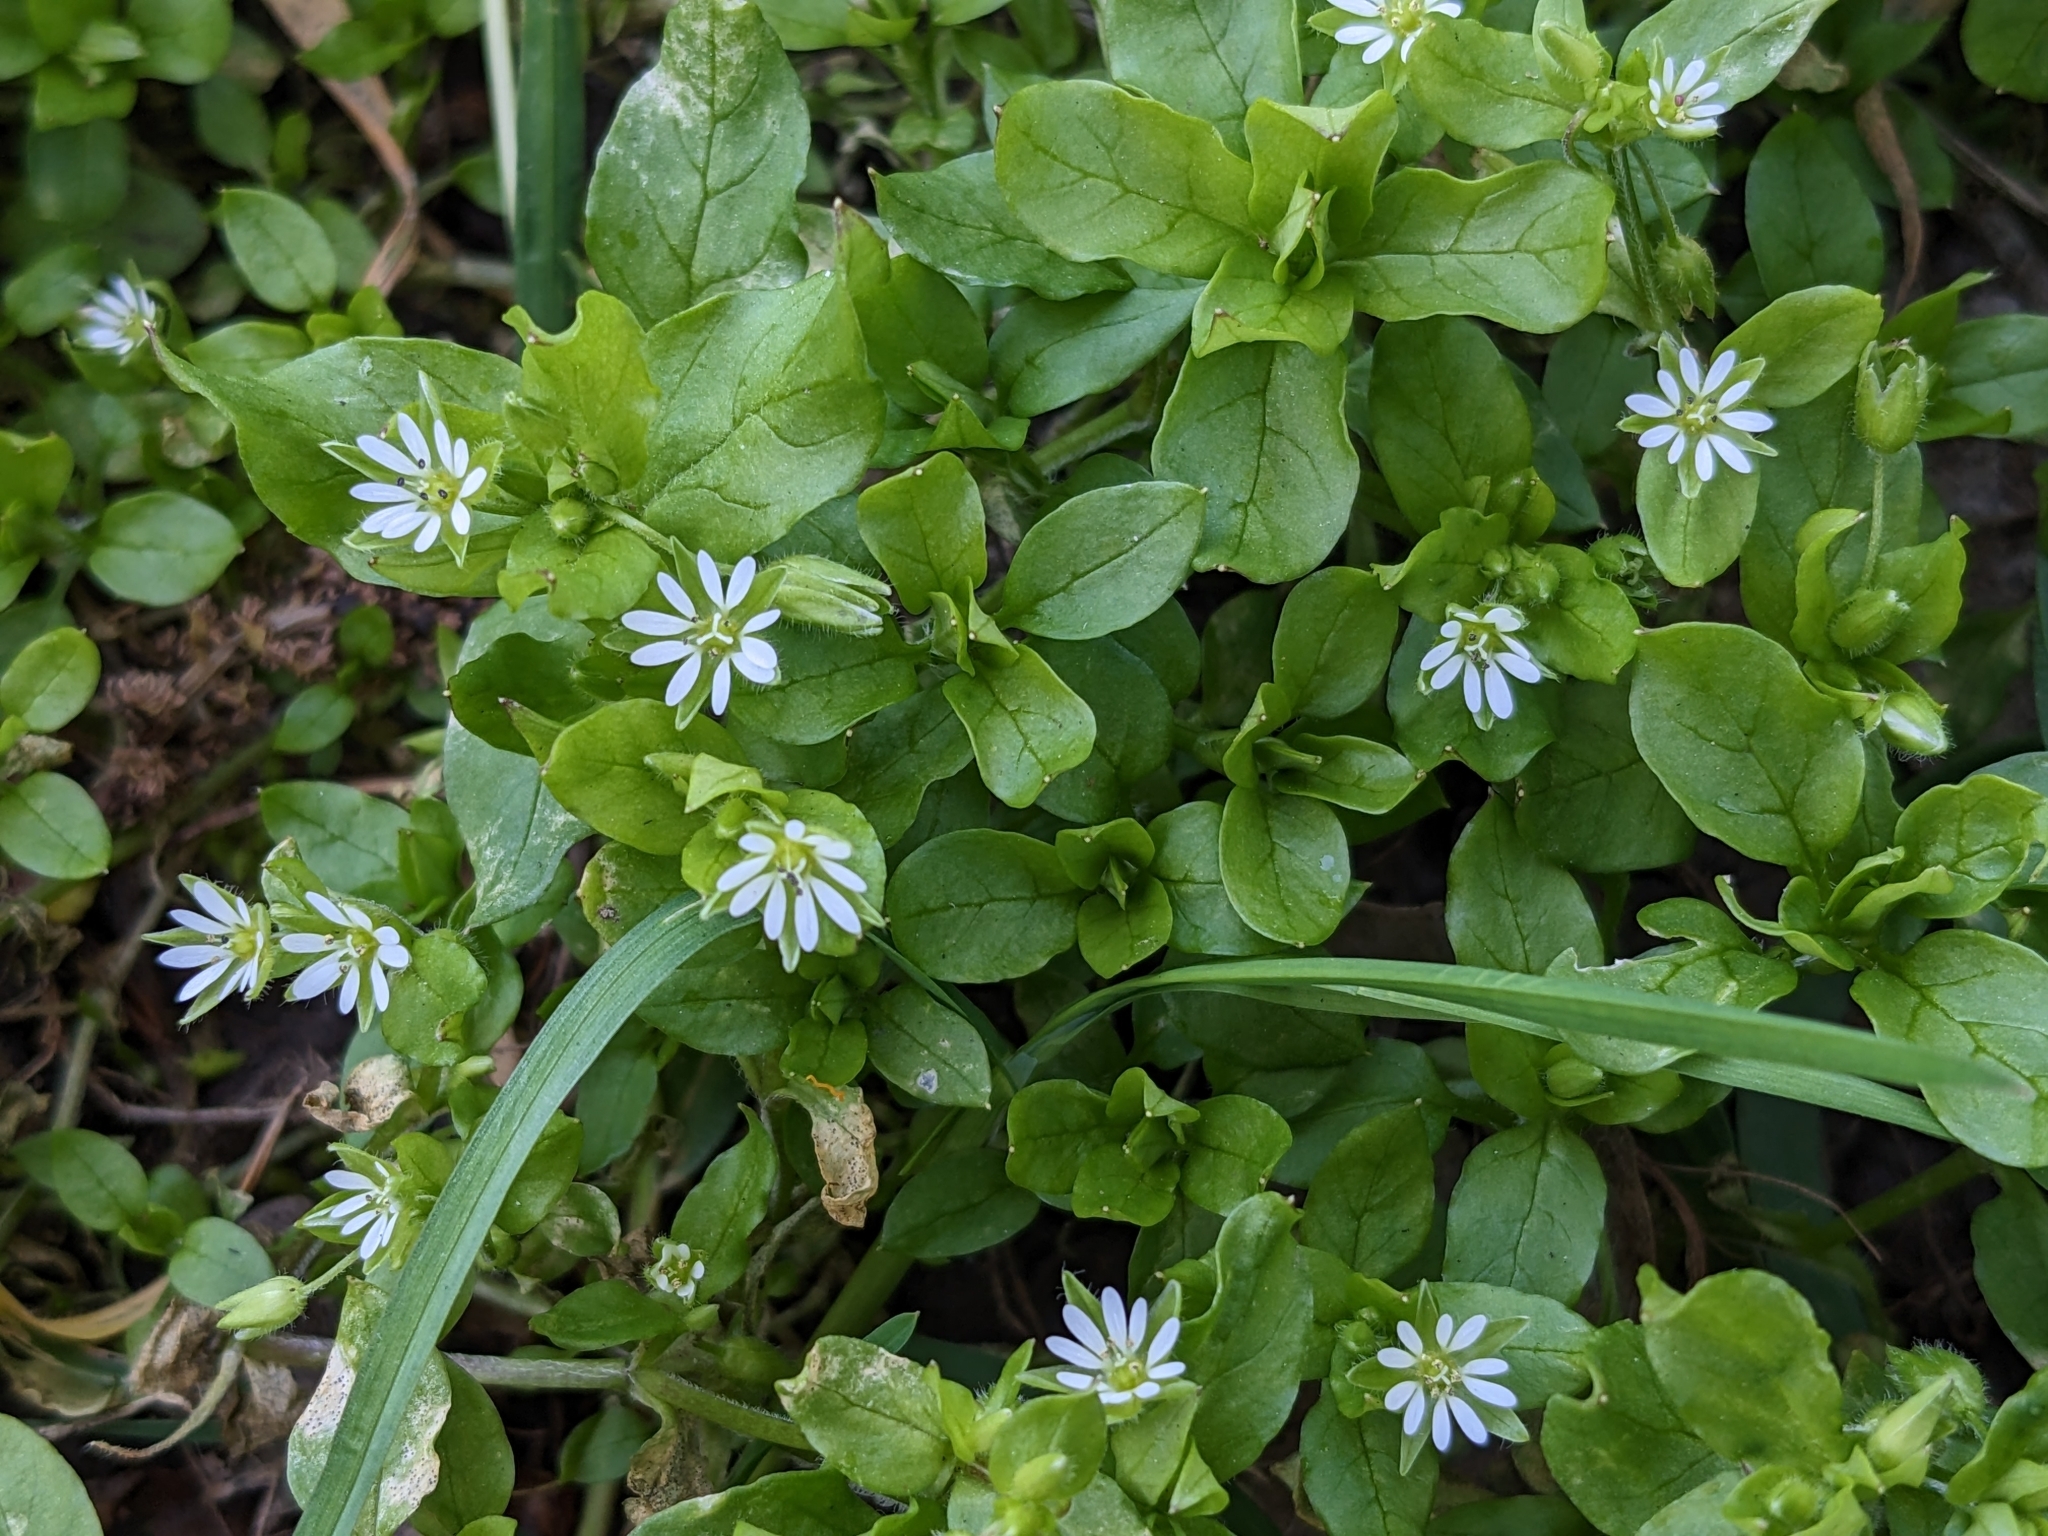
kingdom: Plantae
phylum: Tracheophyta
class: Magnoliopsida
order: Caryophyllales
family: Caryophyllaceae
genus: Stellaria
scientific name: Stellaria media
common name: Common chickweed
